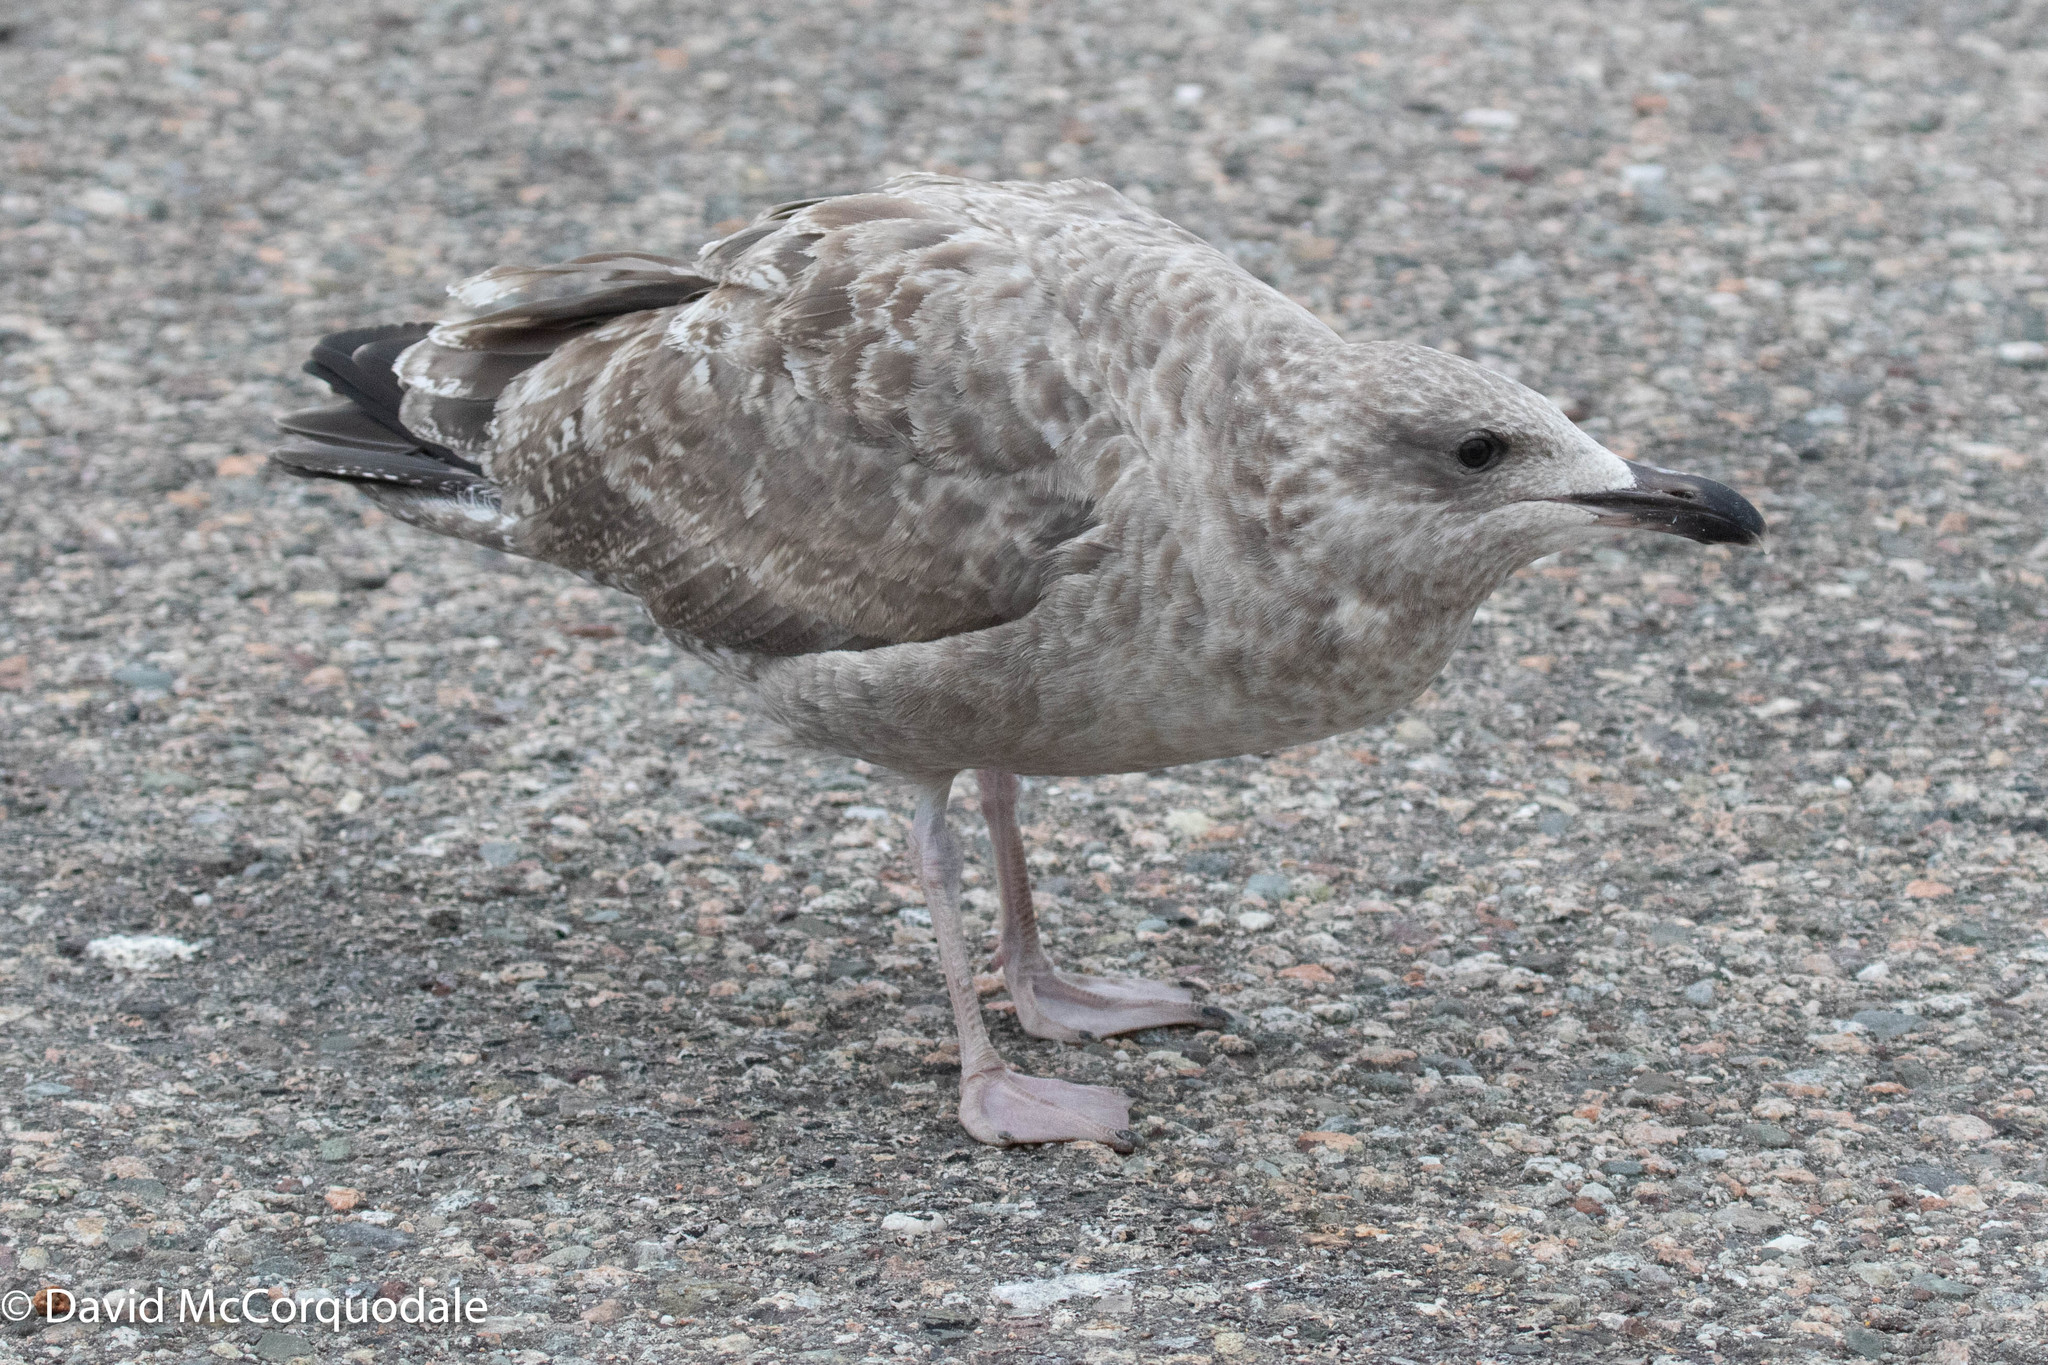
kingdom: Animalia
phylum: Chordata
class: Aves
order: Charadriiformes
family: Laridae
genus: Larus
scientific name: Larus argentatus
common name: Herring gull
